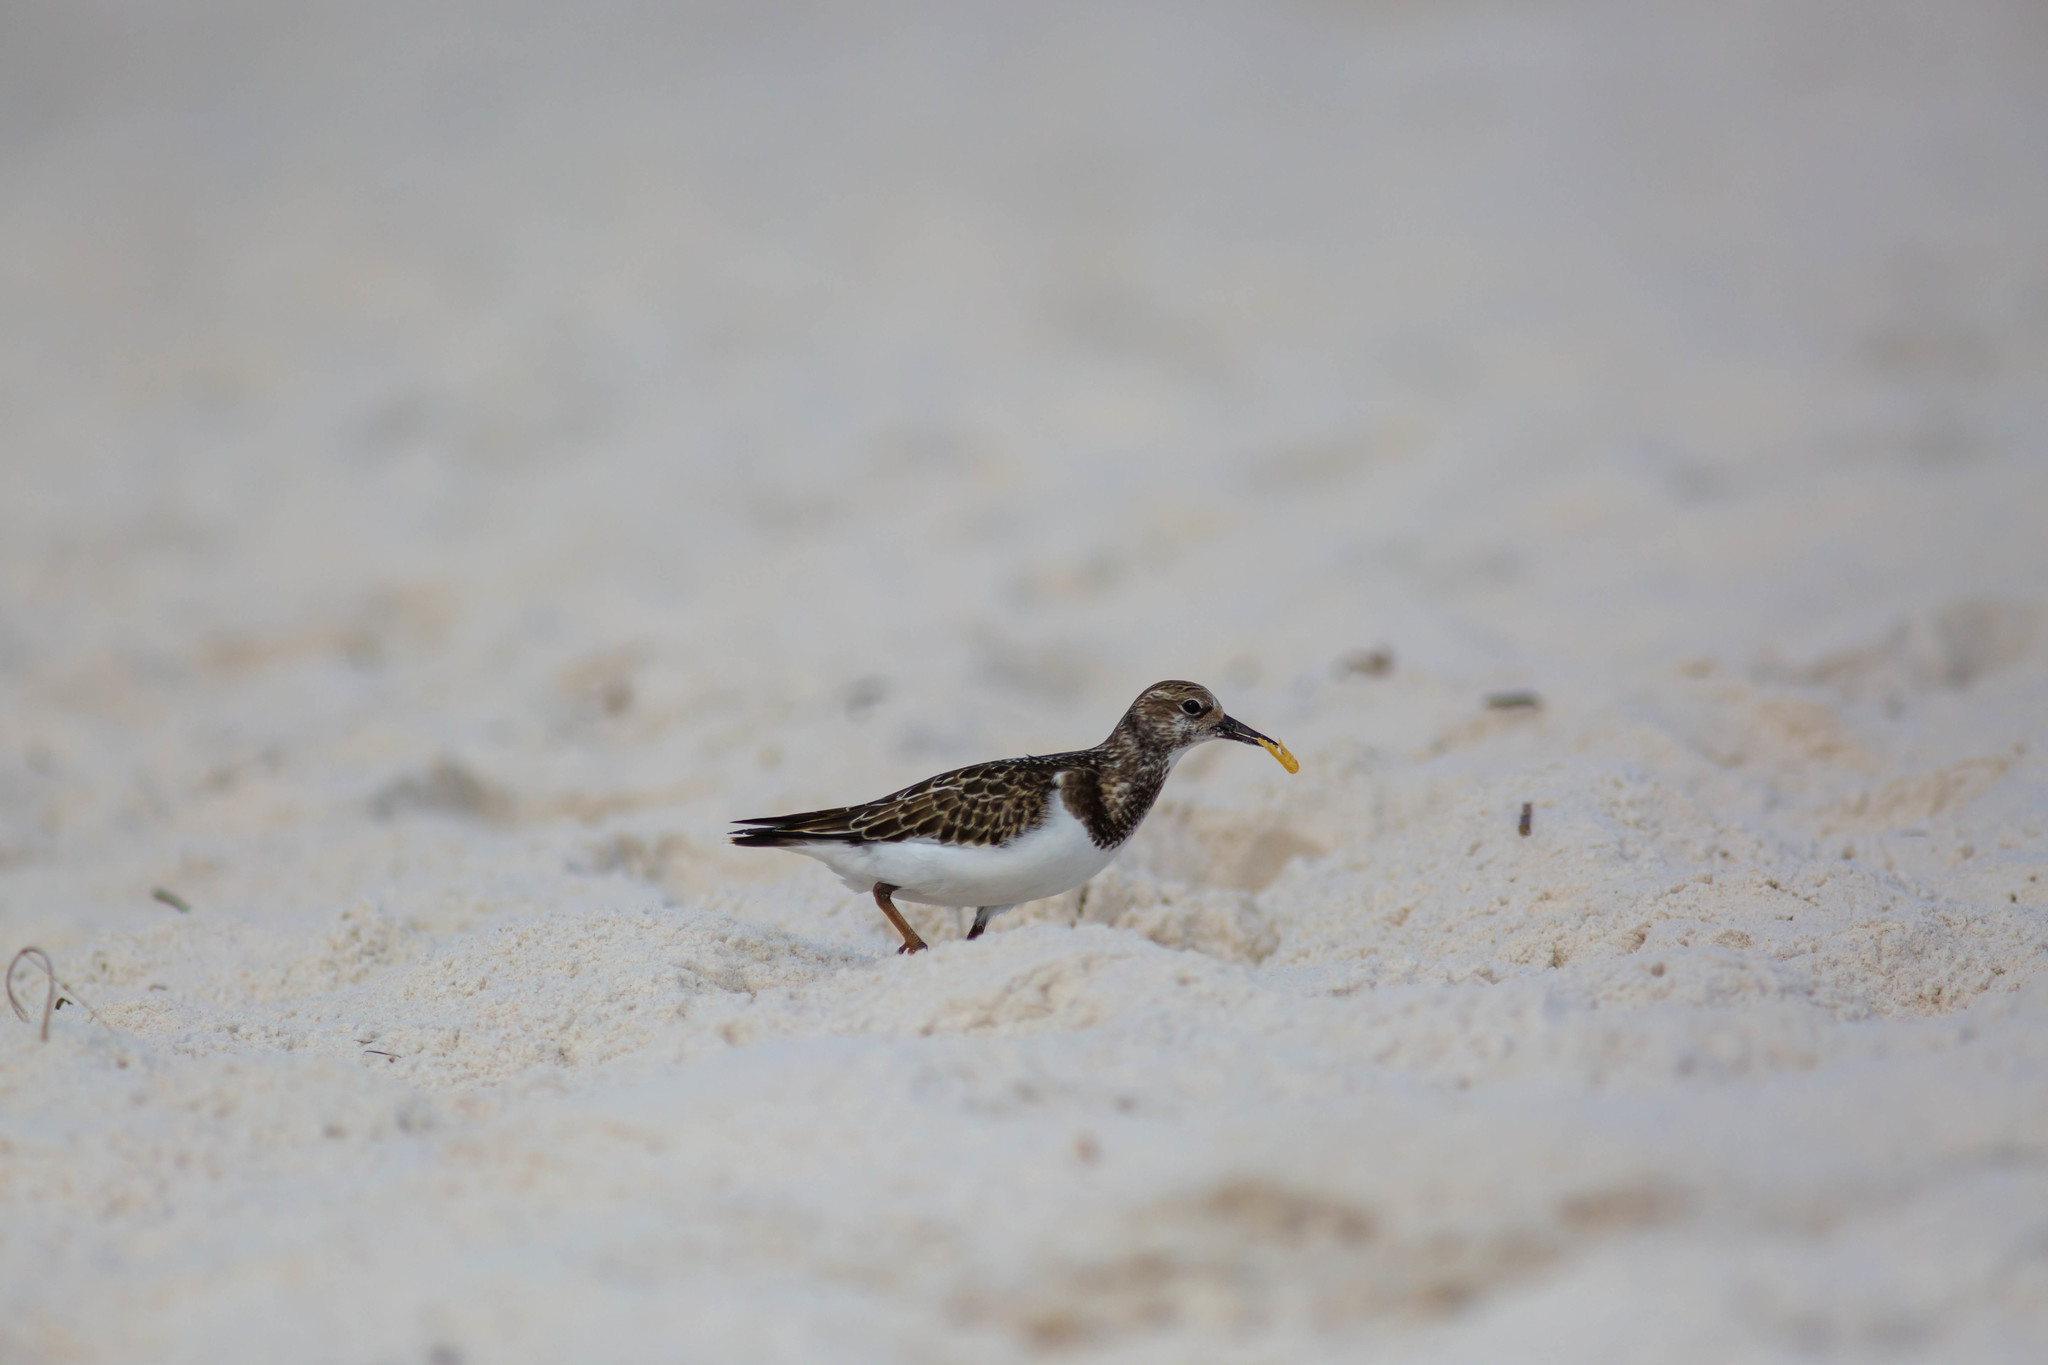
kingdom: Animalia
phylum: Chordata
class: Aves
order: Charadriiformes
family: Scolopacidae
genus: Arenaria
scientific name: Arenaria interpres
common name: Ruddy turnstone
